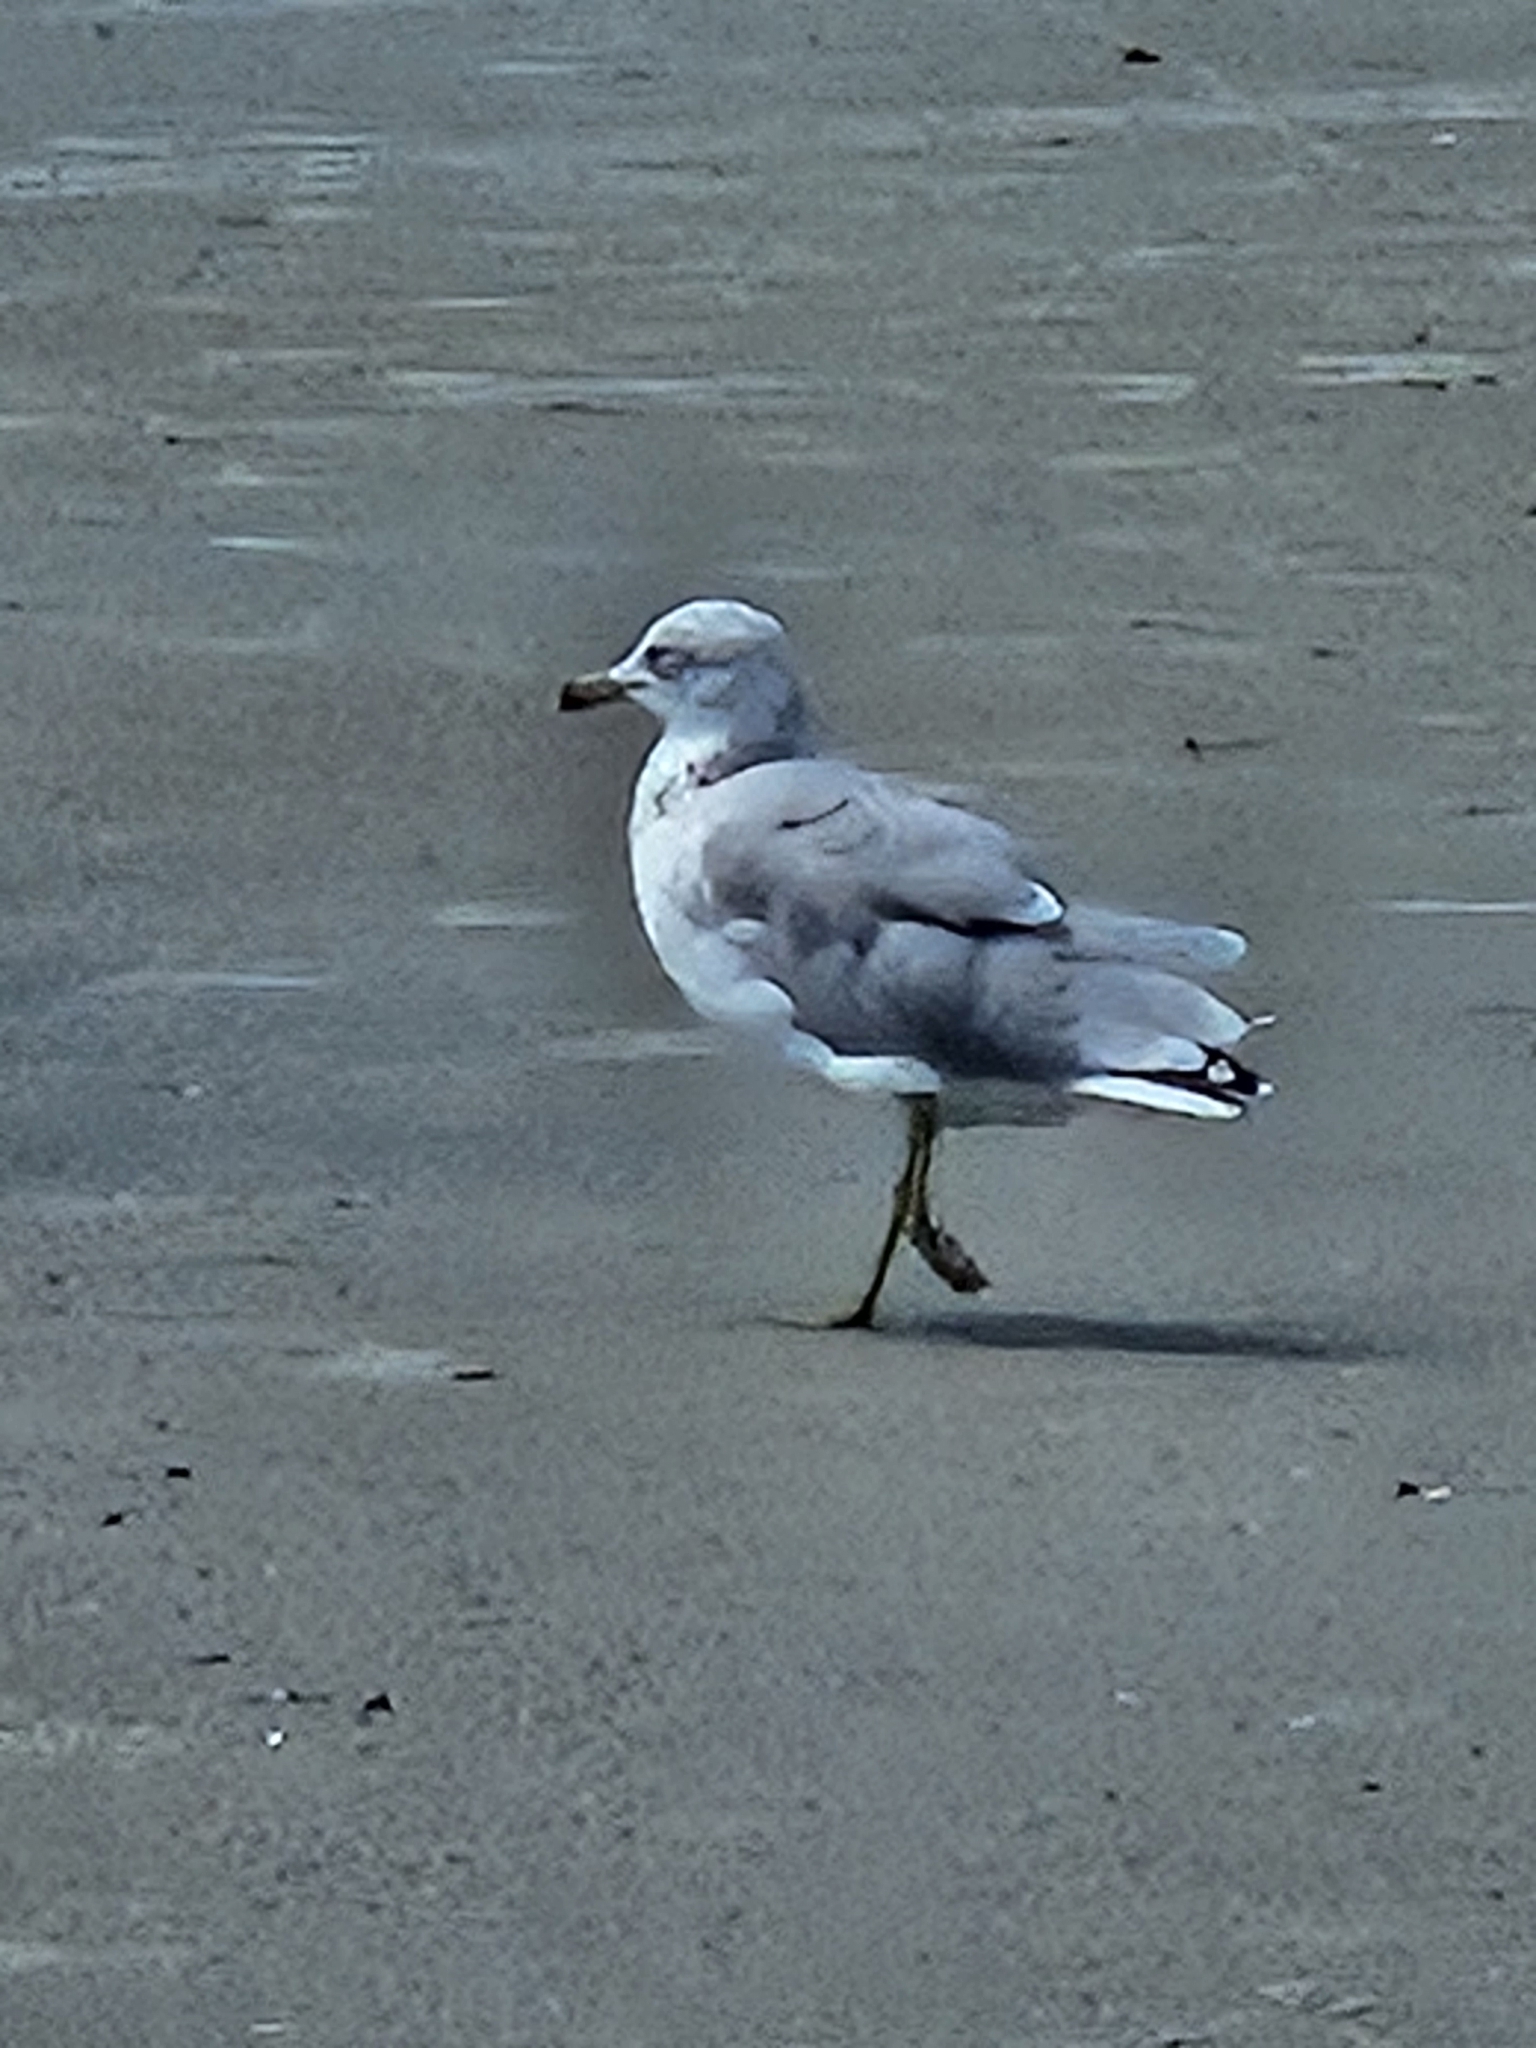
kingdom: Animalia
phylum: Chordata
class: Aves
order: Charadriiformes
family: Laridae
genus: Larus
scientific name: Larus delawarensis
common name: Ring-billed gull
